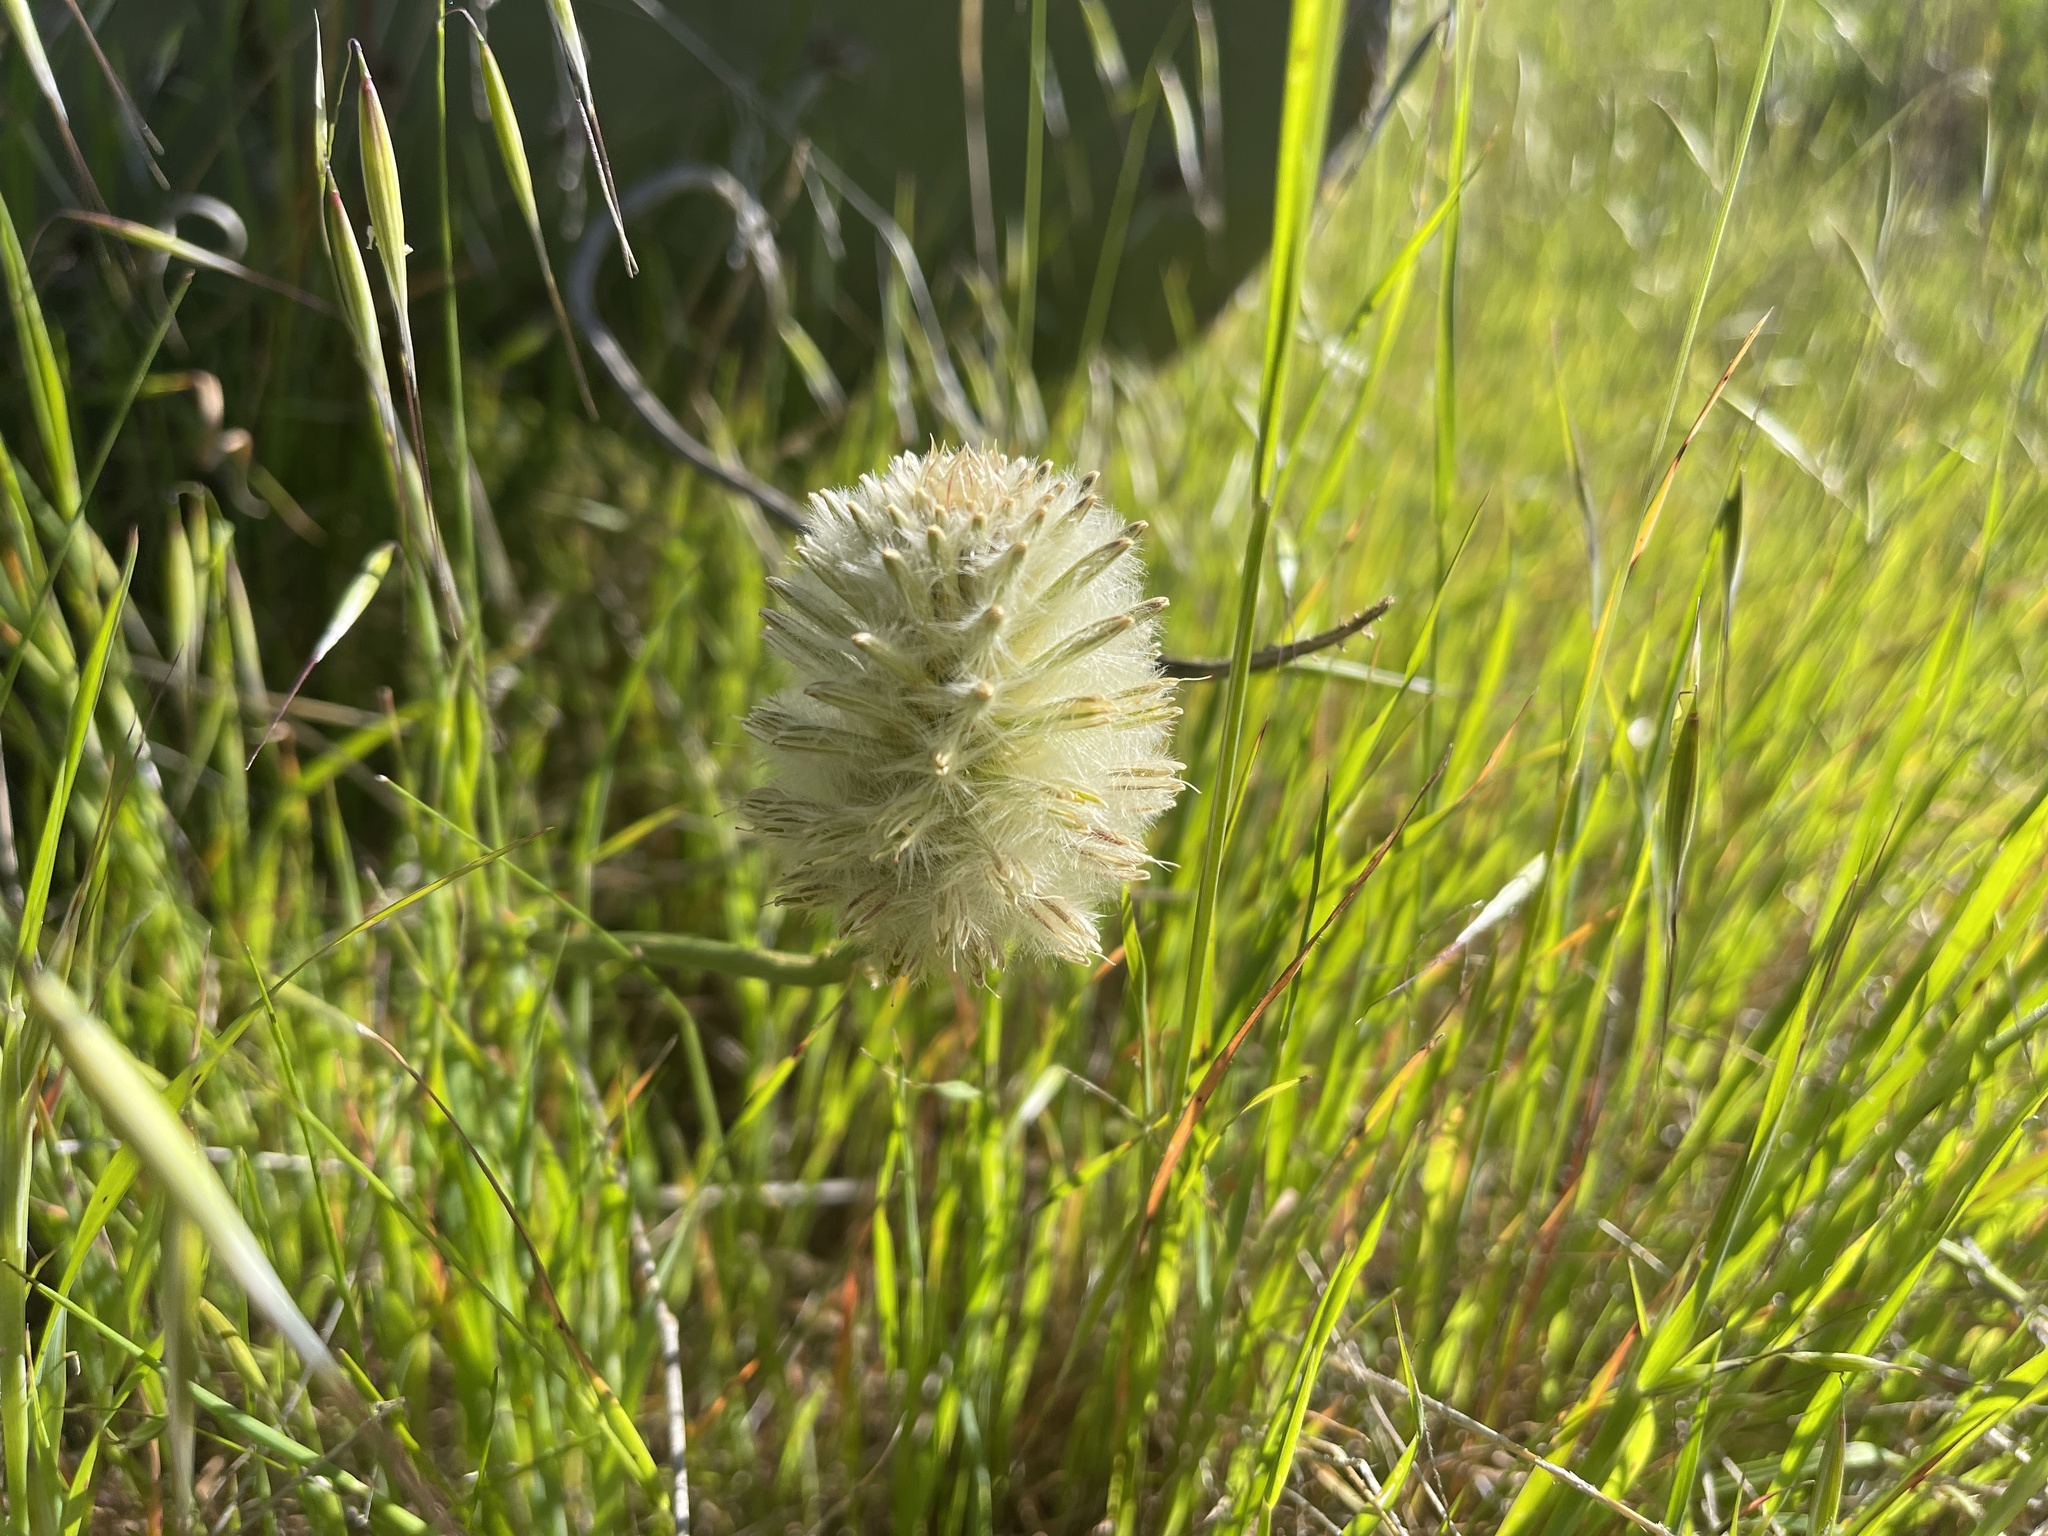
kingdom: Plantae
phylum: Tracheophyta
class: Magnoliopsida
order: Caryophyllales
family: Amaranthaceae
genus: Ptilotus
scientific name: Ptilotus macrocephalus
